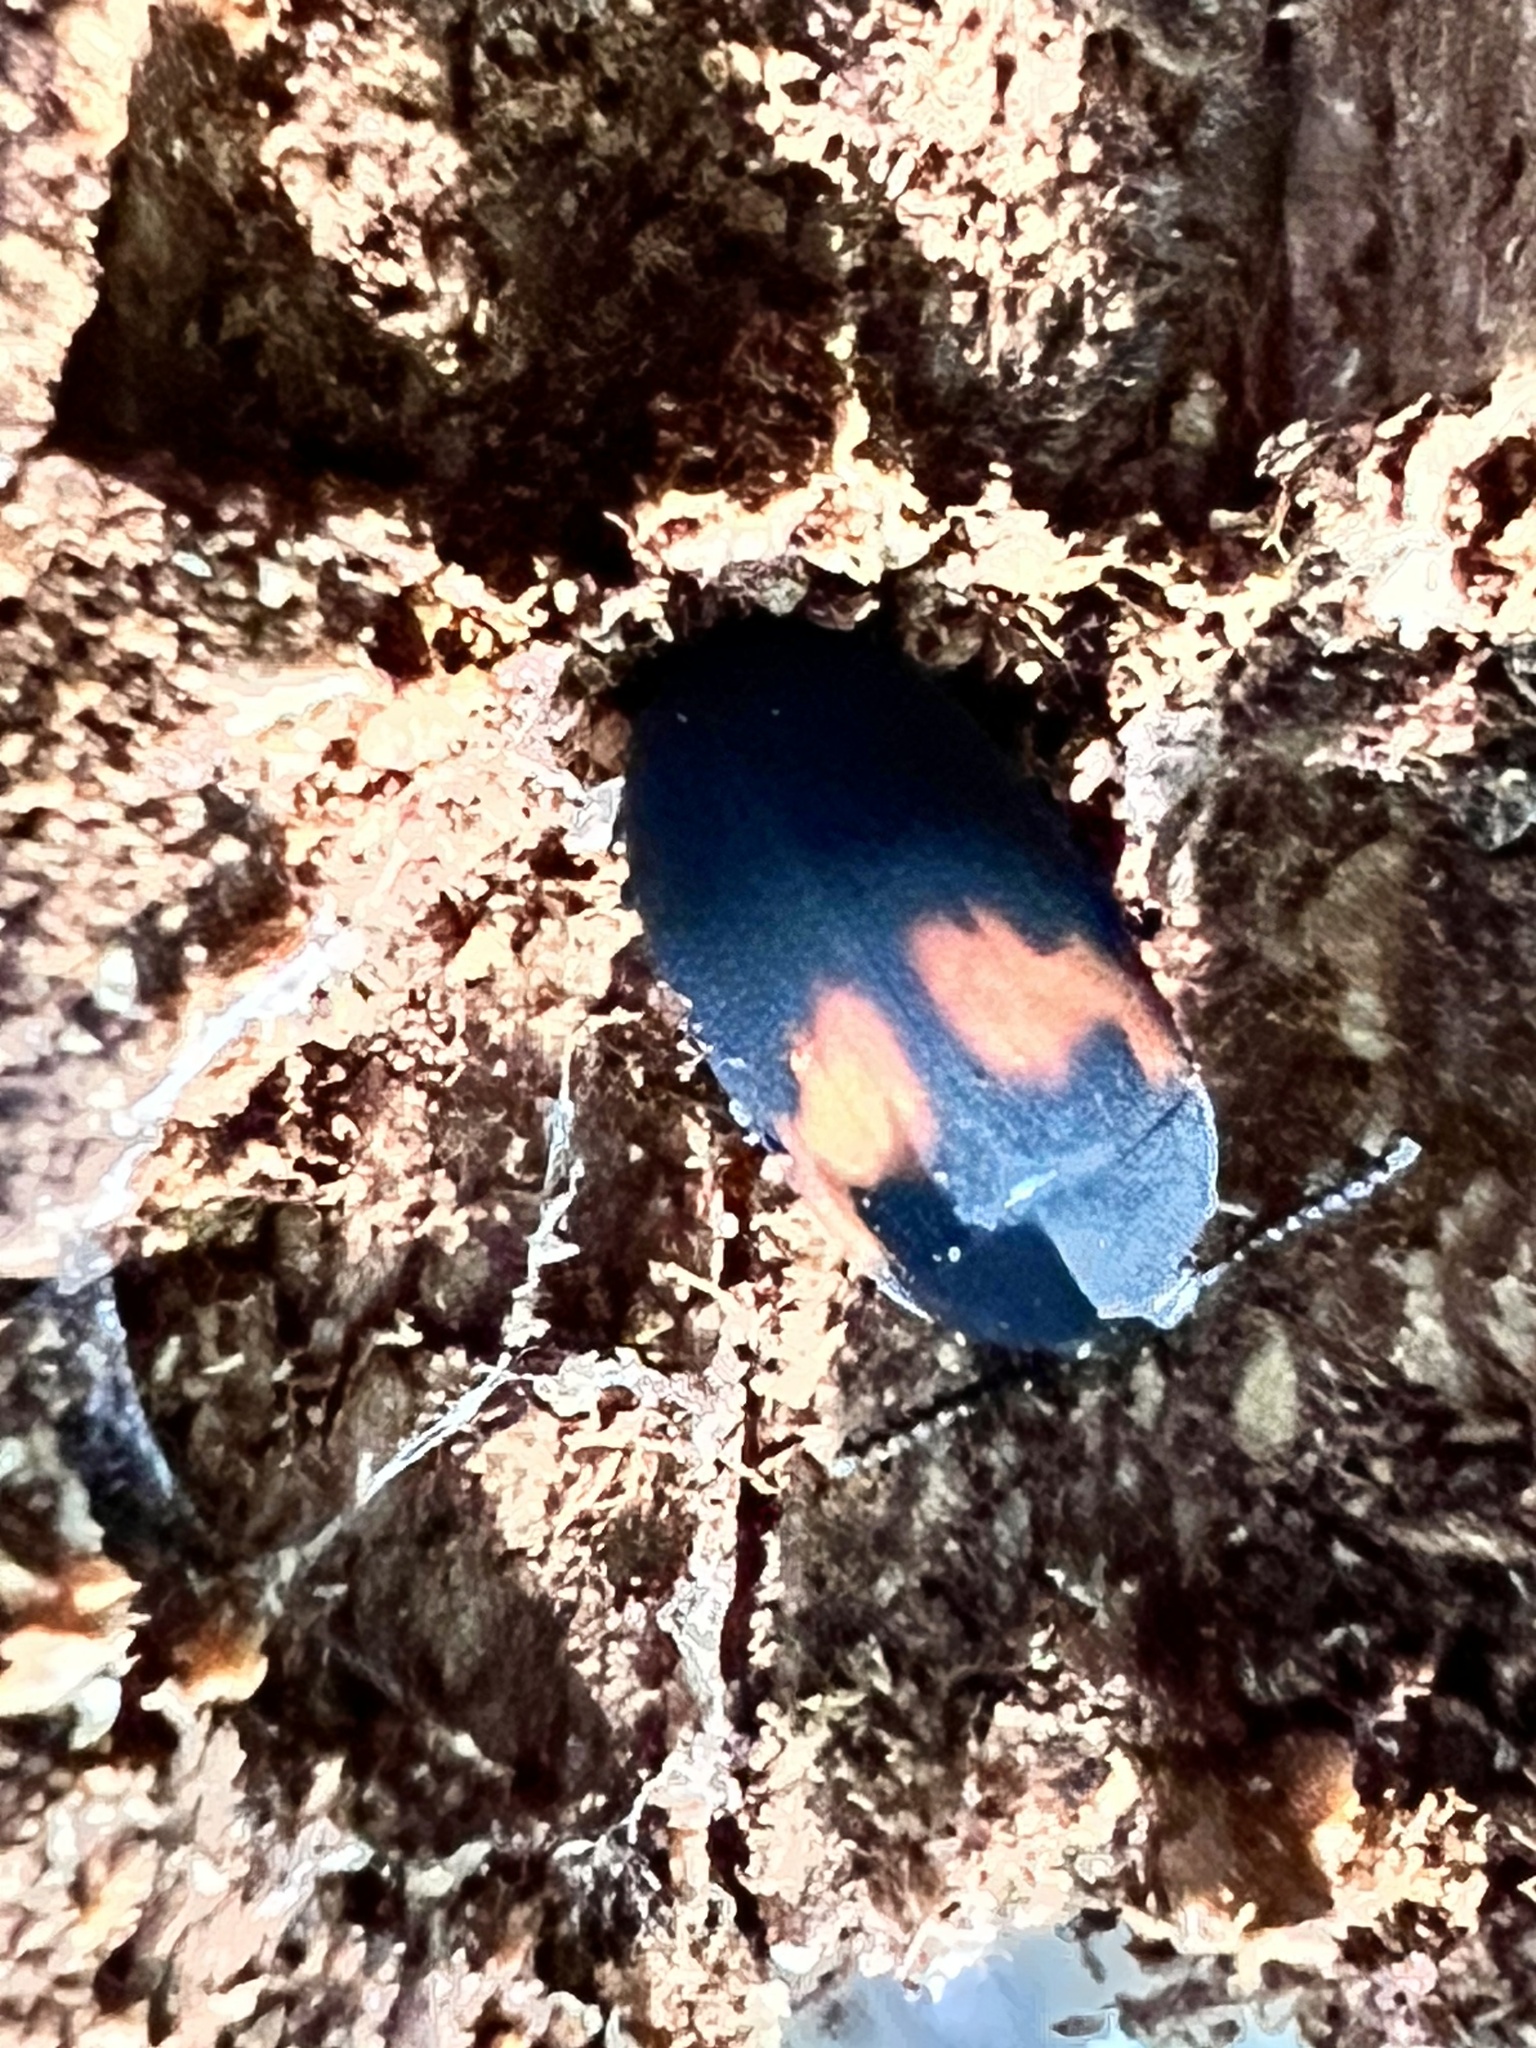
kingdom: Animalia
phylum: Arthropoda
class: Insecta
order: Coleoptera
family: Tenebrionidae
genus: Platydema
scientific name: Platydema elliptica
